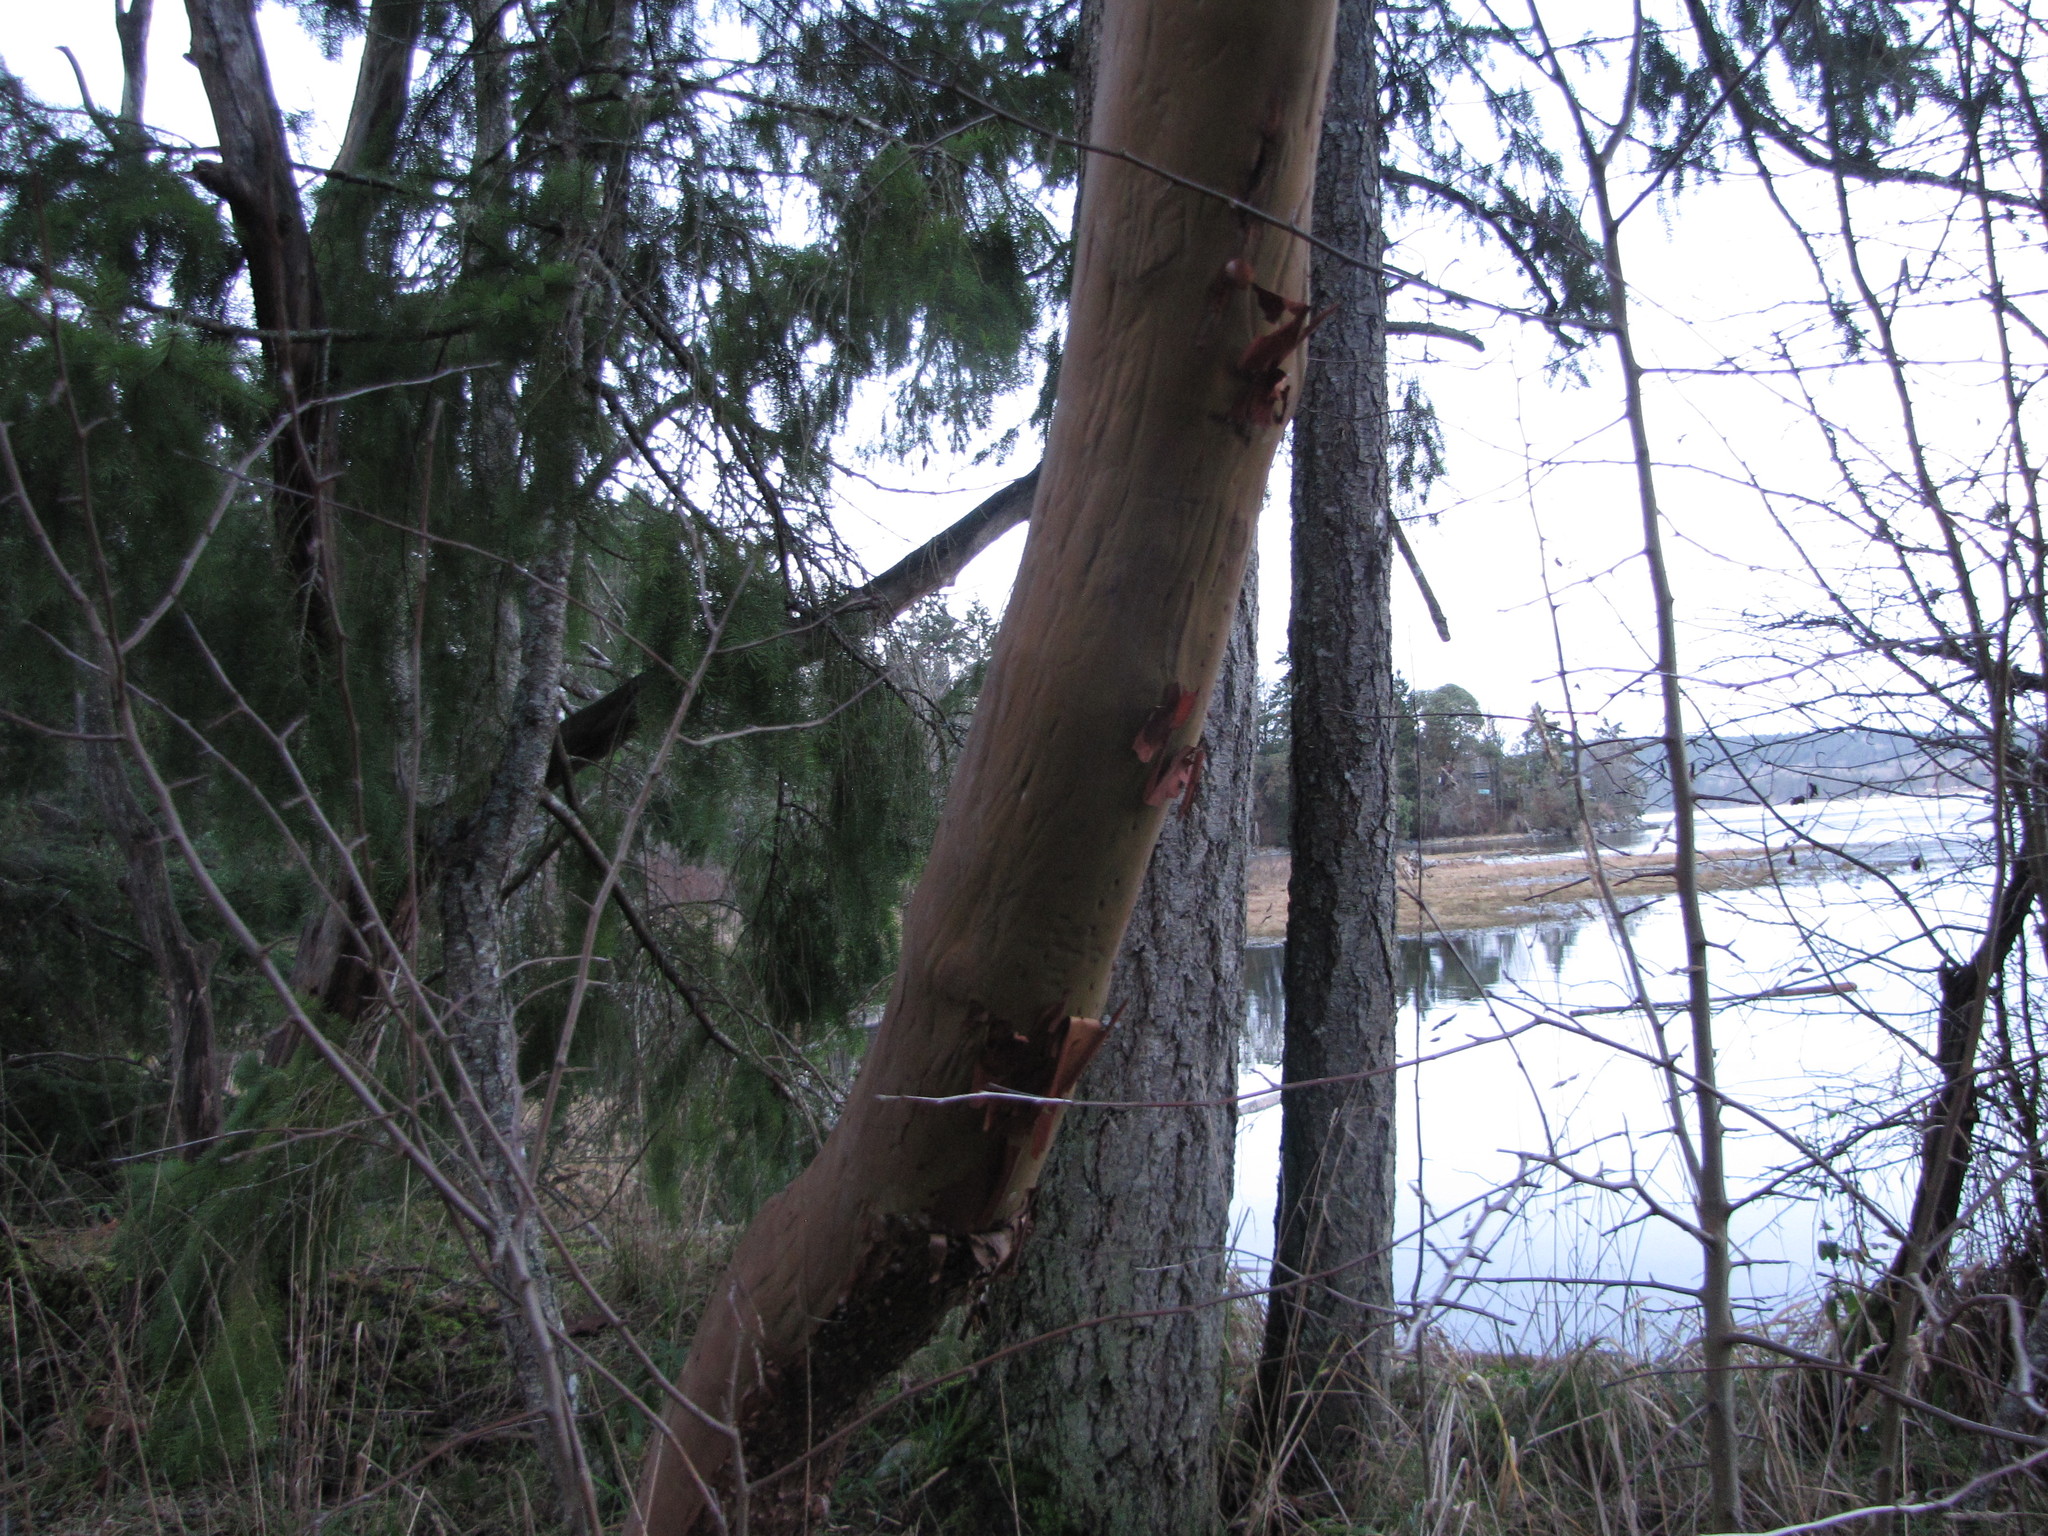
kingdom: Plantae
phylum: Tracheophyta
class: Magnoliopsida
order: Ericales
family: Ericaceae
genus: Arbutus
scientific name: Arbutus menziesii
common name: Pacific madrone
